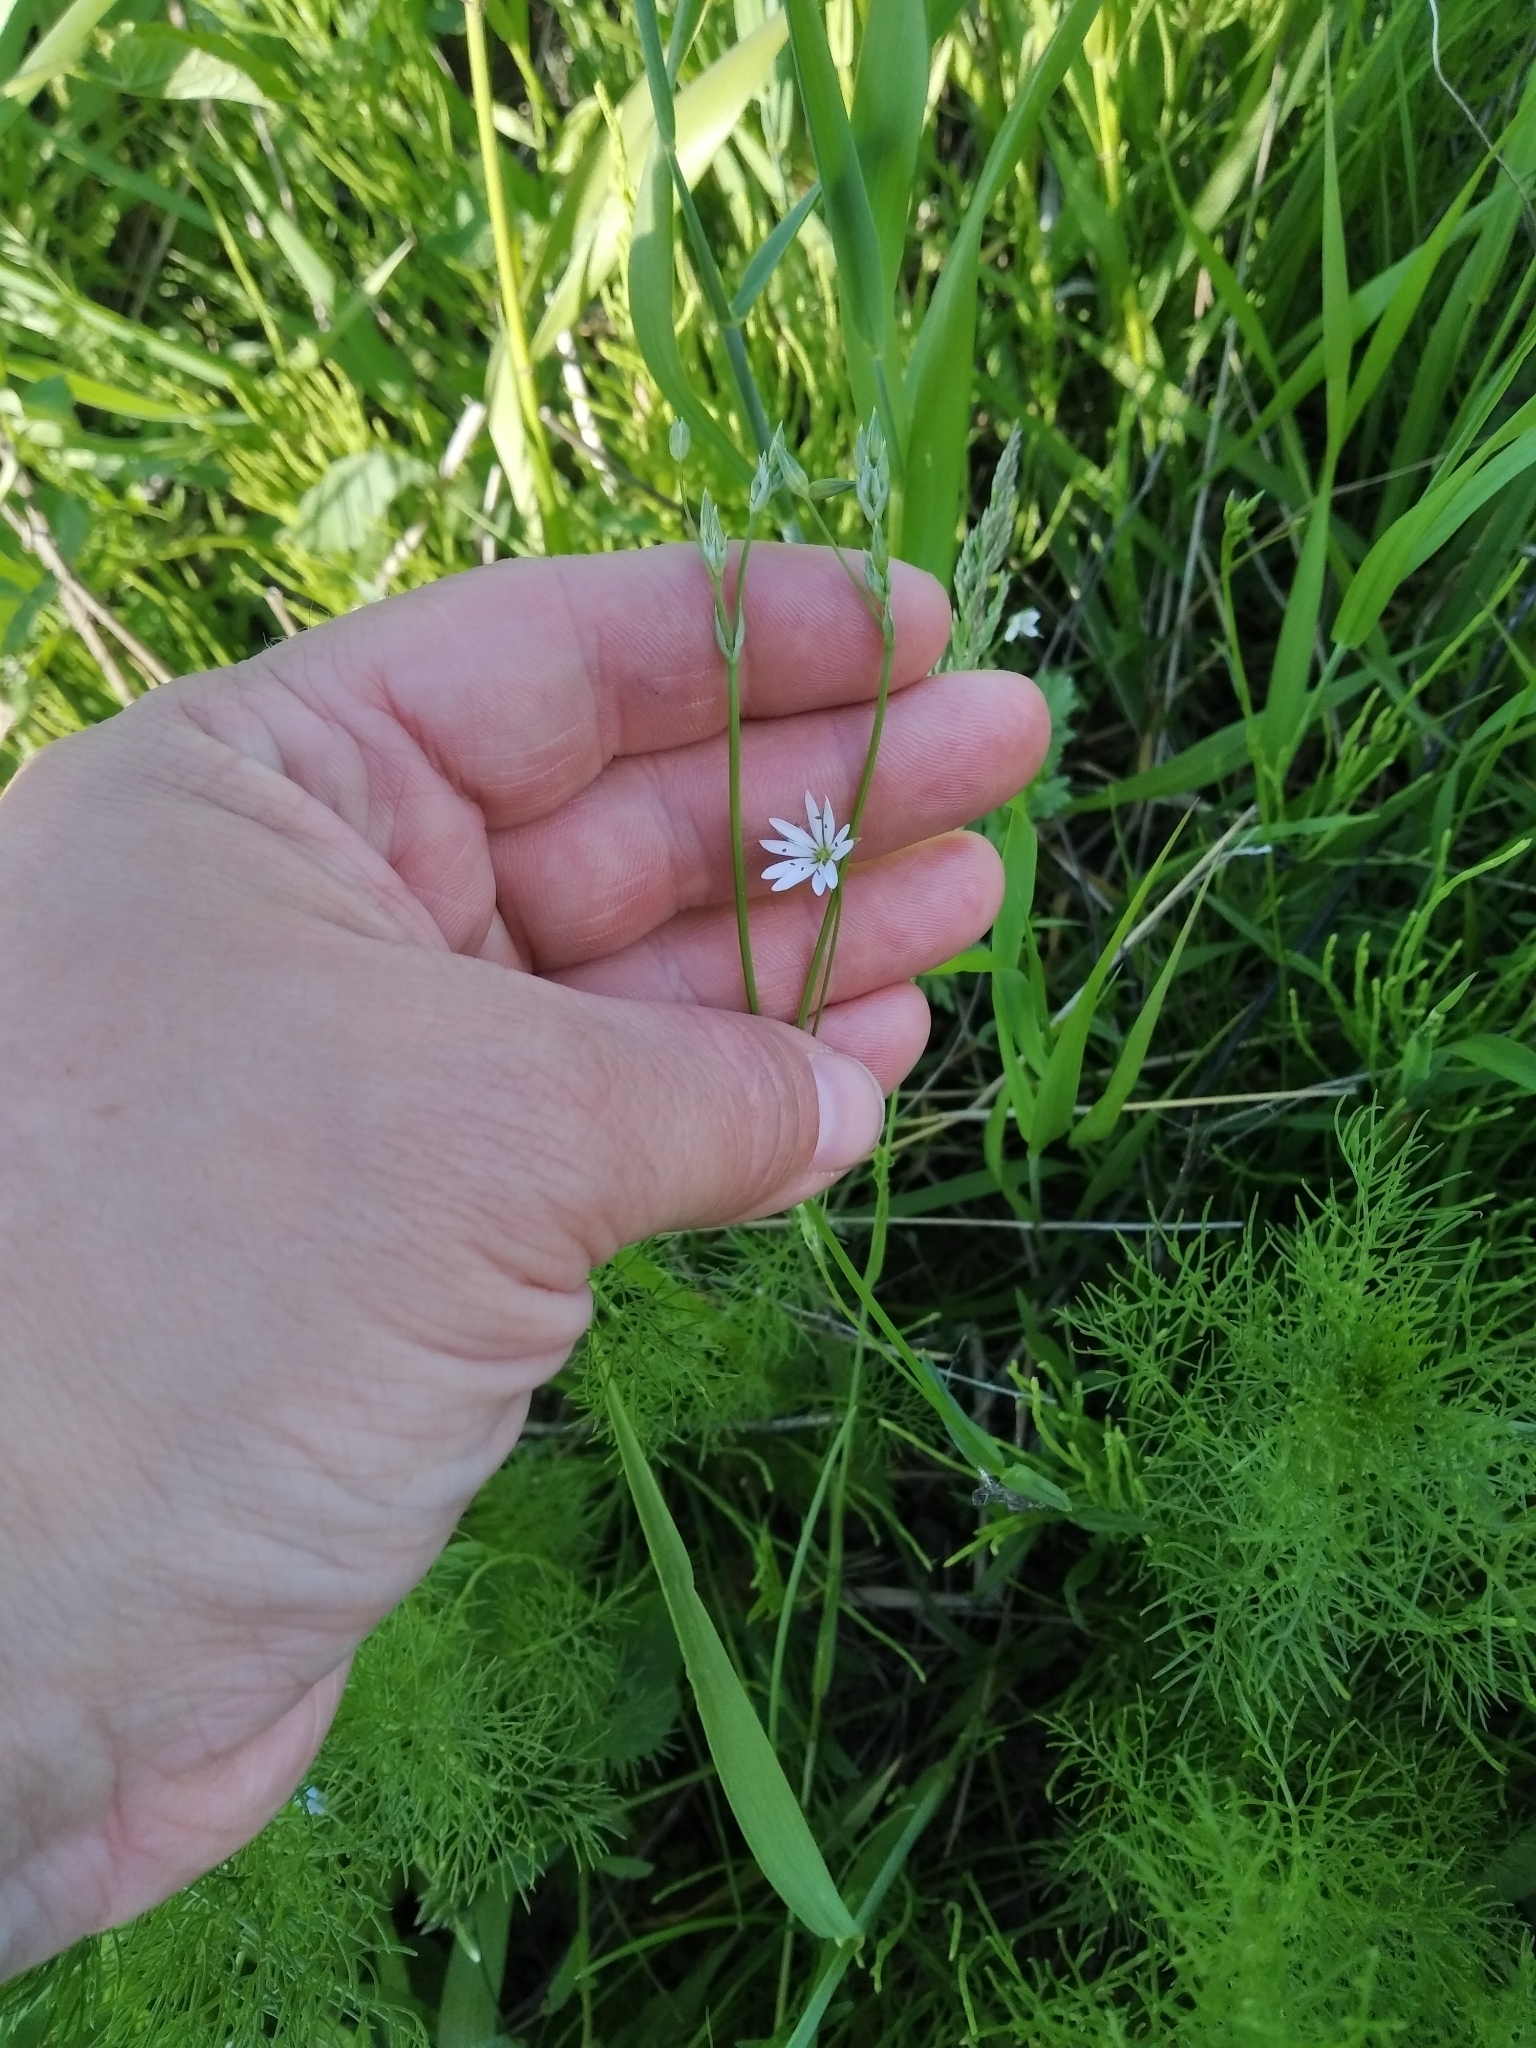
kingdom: Plantae
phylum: Tracheophyta
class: Magnoliopsida
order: Caryophyllales
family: Caryophyllaceae
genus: Stellaria
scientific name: Stellaria graminea
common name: Grass-like starwort
